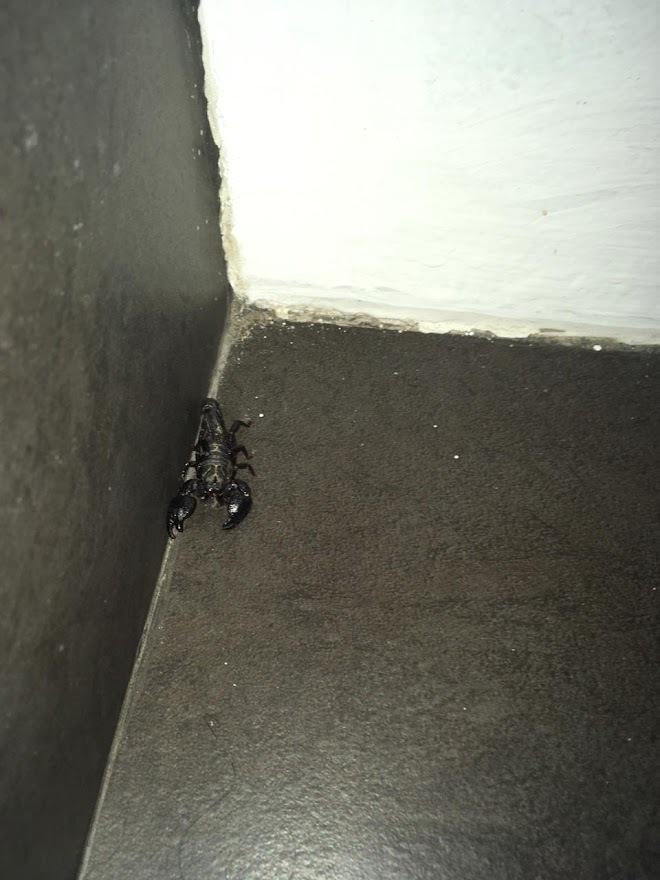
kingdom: Animalia
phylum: Arthropoda
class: Arachnida
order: Scorpiones
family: Chactidae
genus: Teuthraustes
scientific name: Teuthraustes atramentarius
